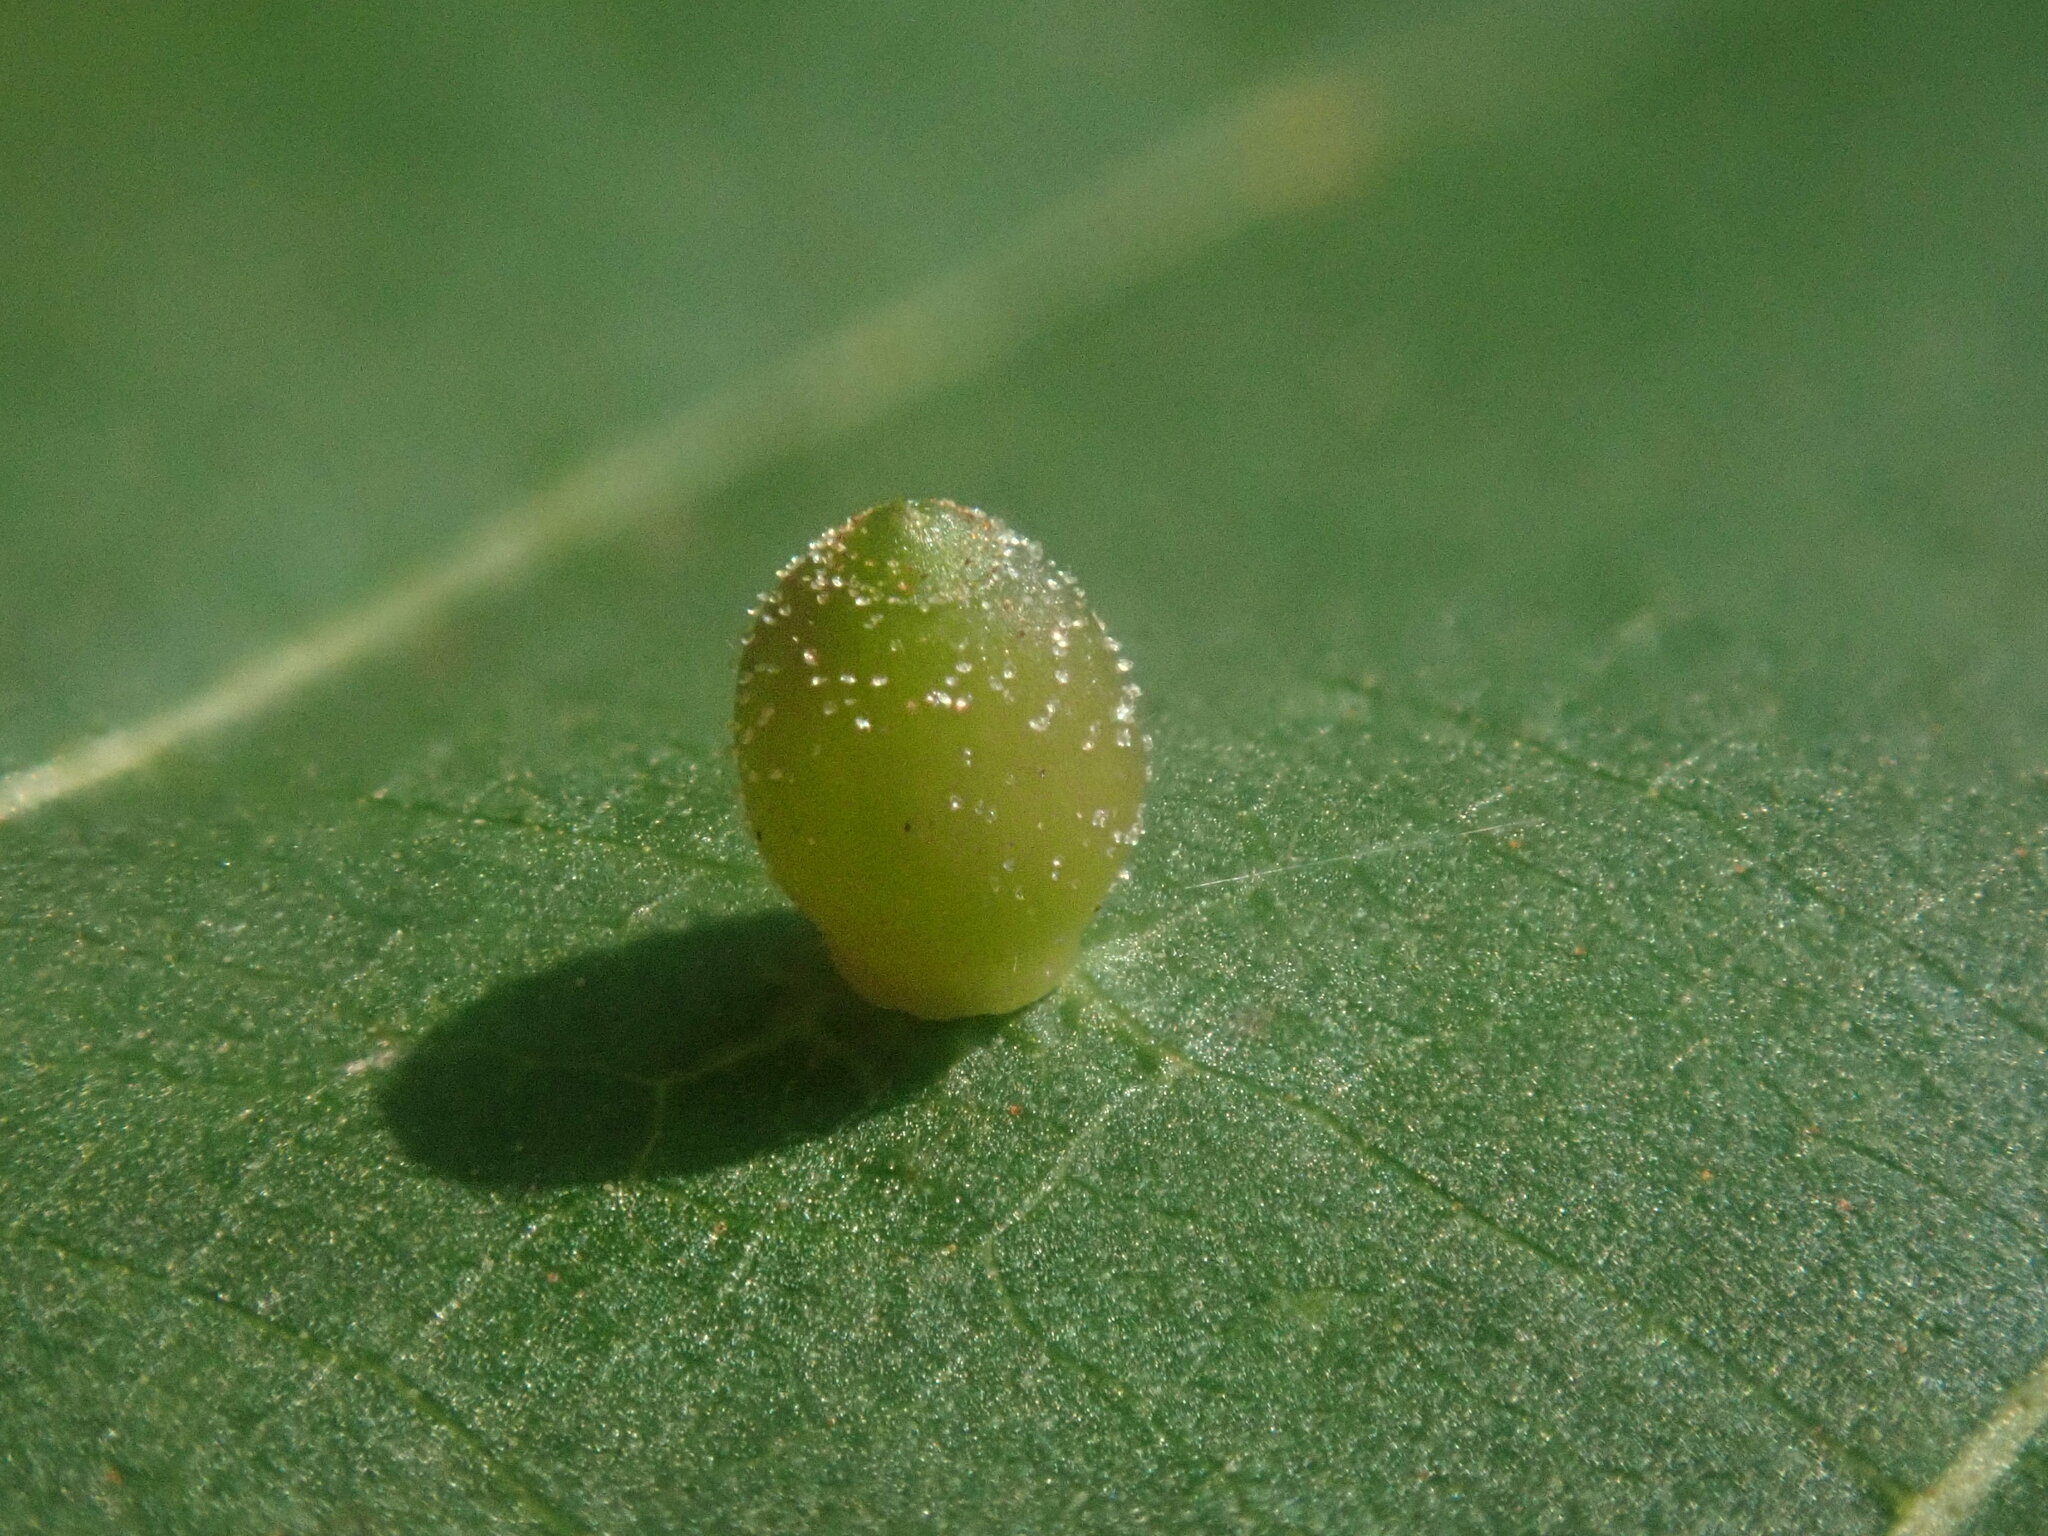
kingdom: Animalia
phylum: Arthropoda
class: Insecta
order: Diptera
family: Cecidomyiidae
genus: Caryomyia
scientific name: Caryomyia viscidolium
